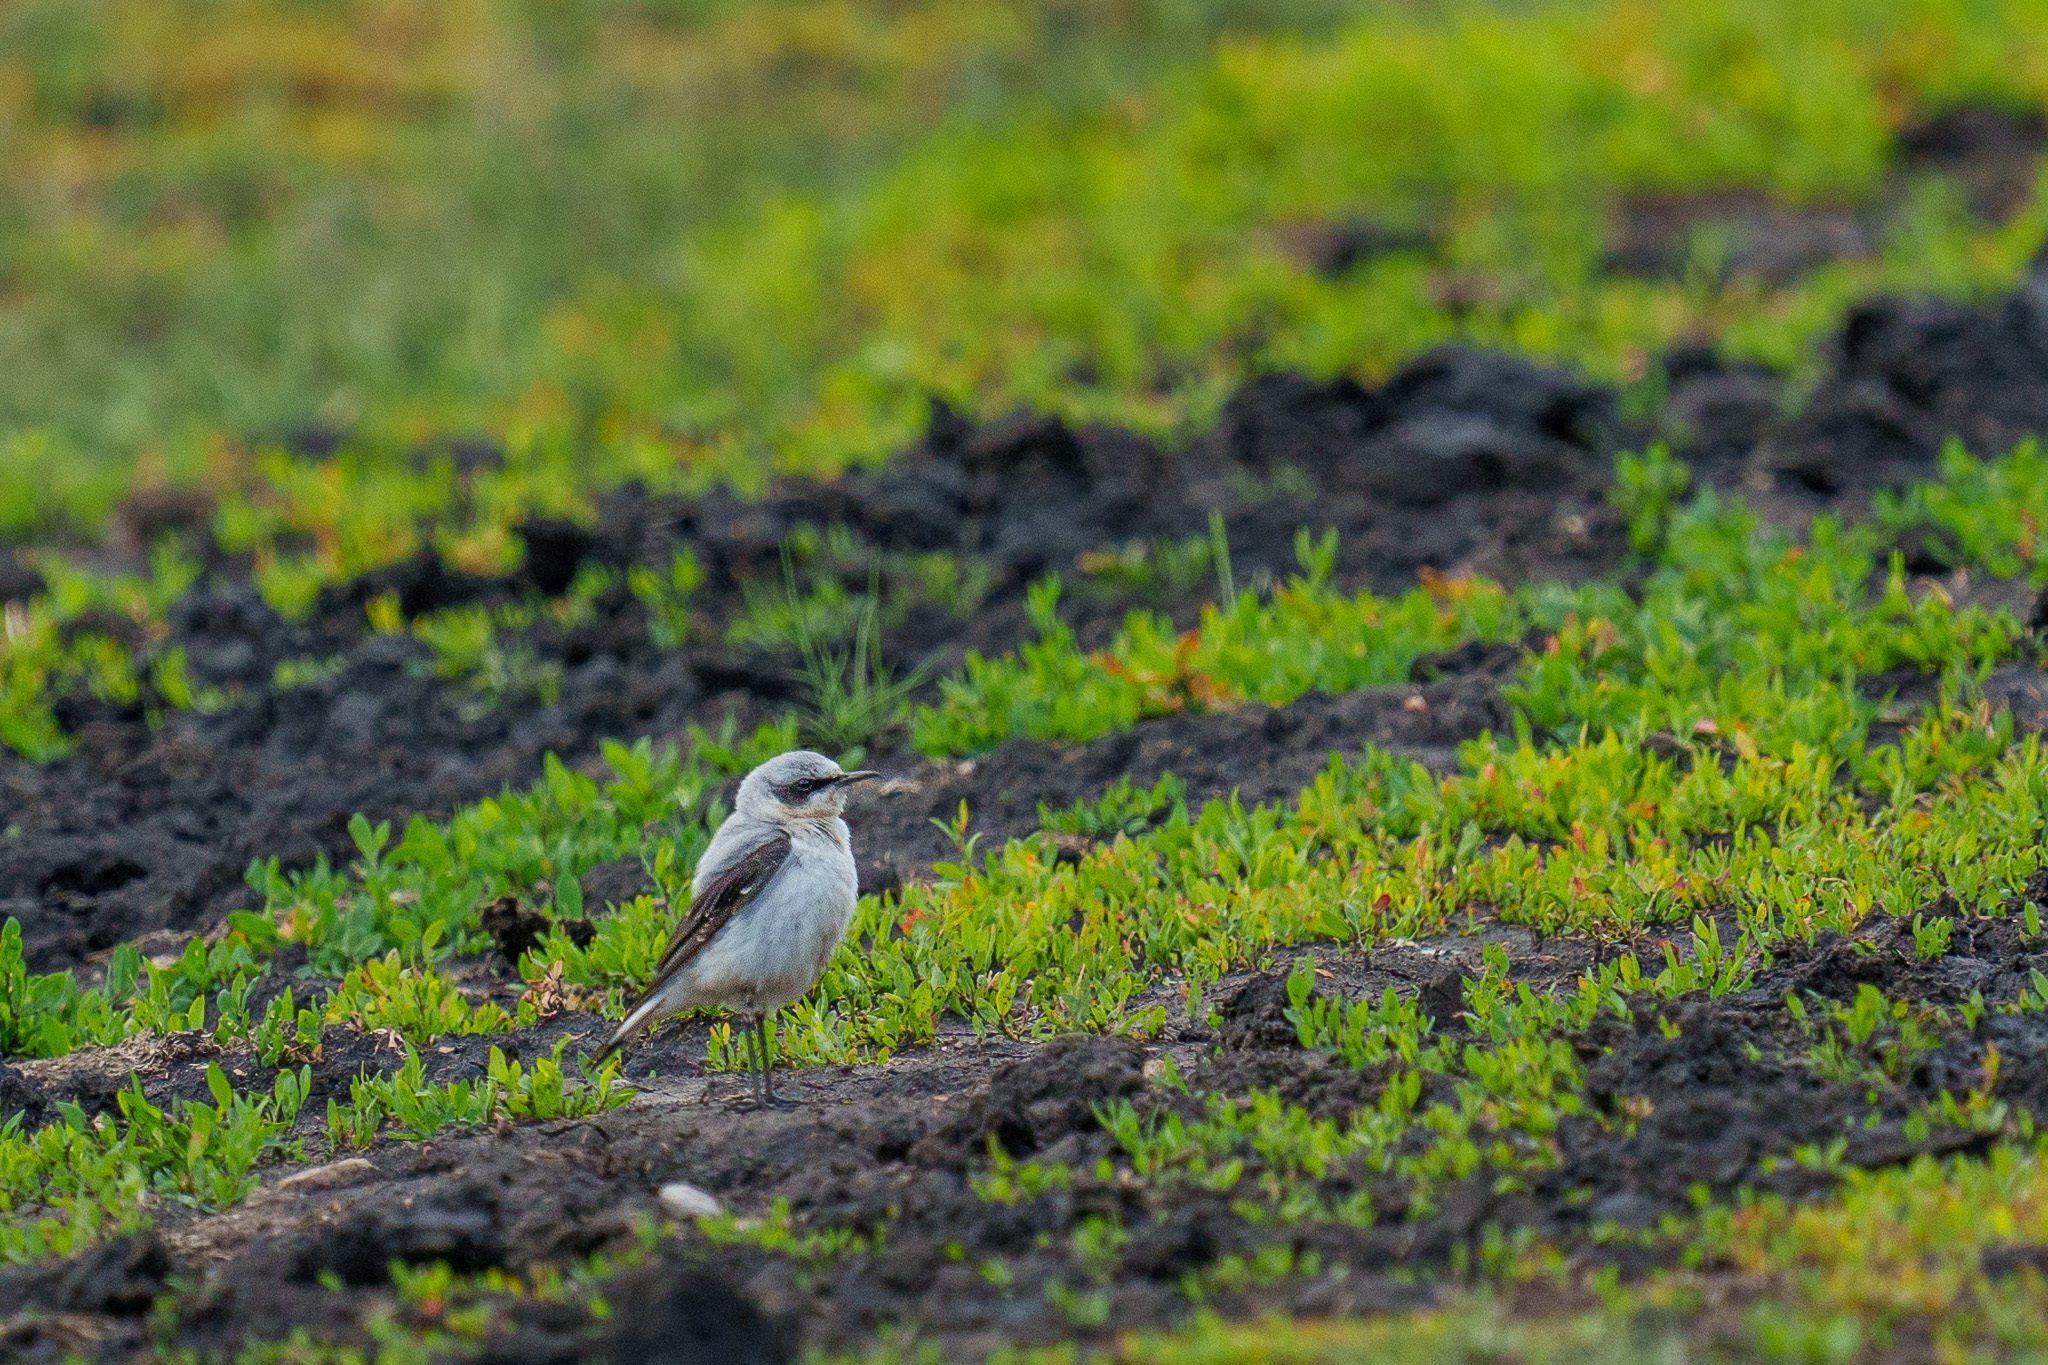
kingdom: Animalia
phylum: Chordata
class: Aves
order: Passeriformes
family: Muscicapidae
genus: Oenanthe
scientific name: Oenanthe oenanthe
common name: Northern wheatear
